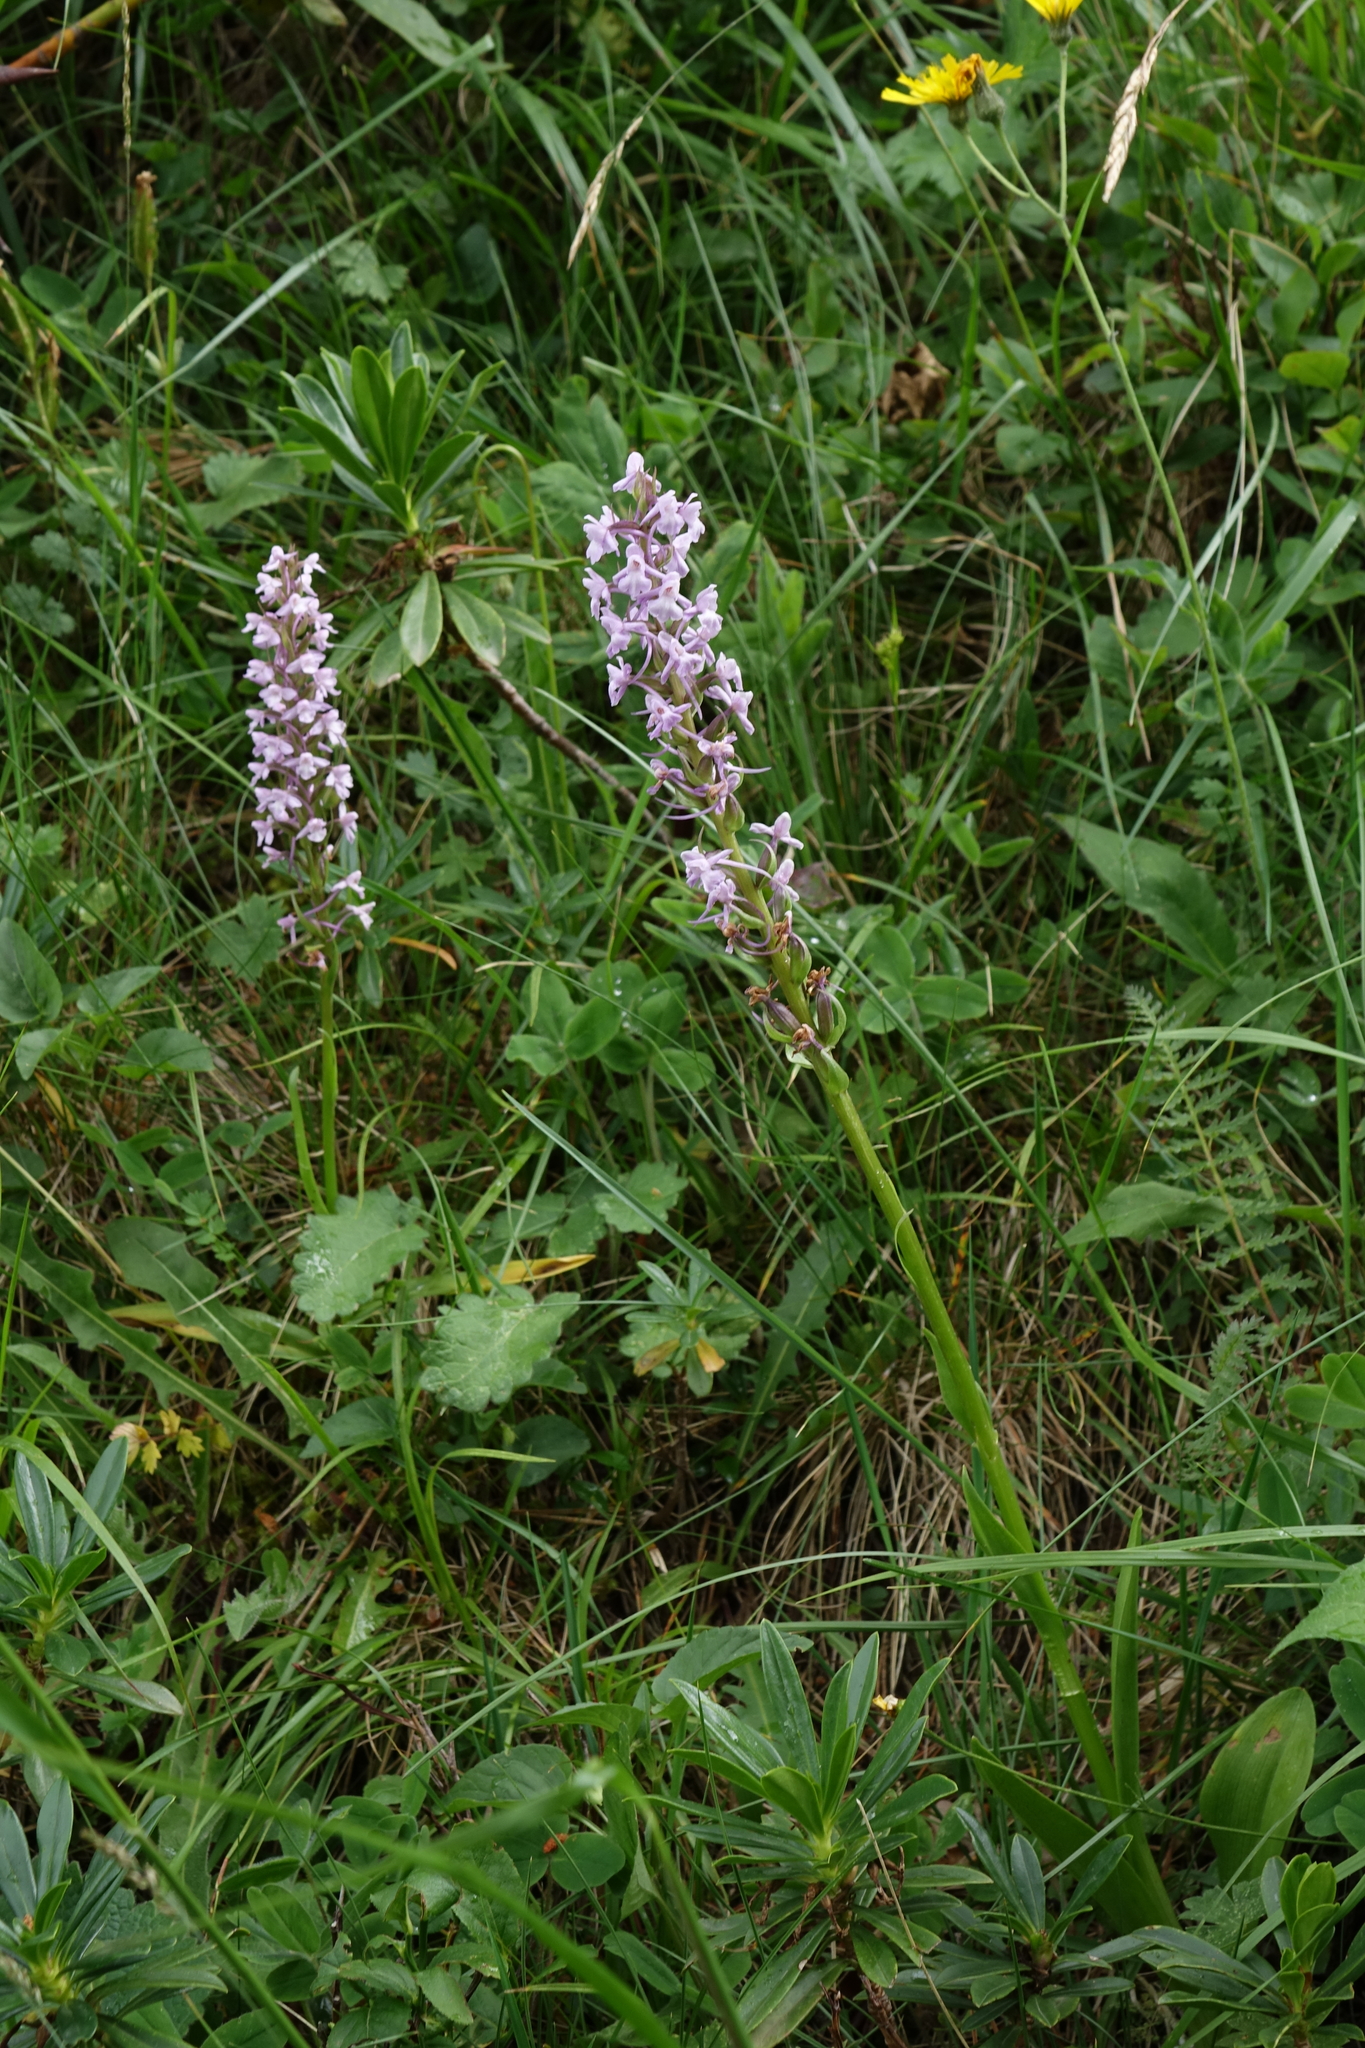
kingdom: Plantae
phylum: Tracheophyta
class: Liliopsida
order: Asparagales
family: Orchidaceae
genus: Gymnadenia
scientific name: Gymnadenia conopsea
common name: Fragrant orchid
